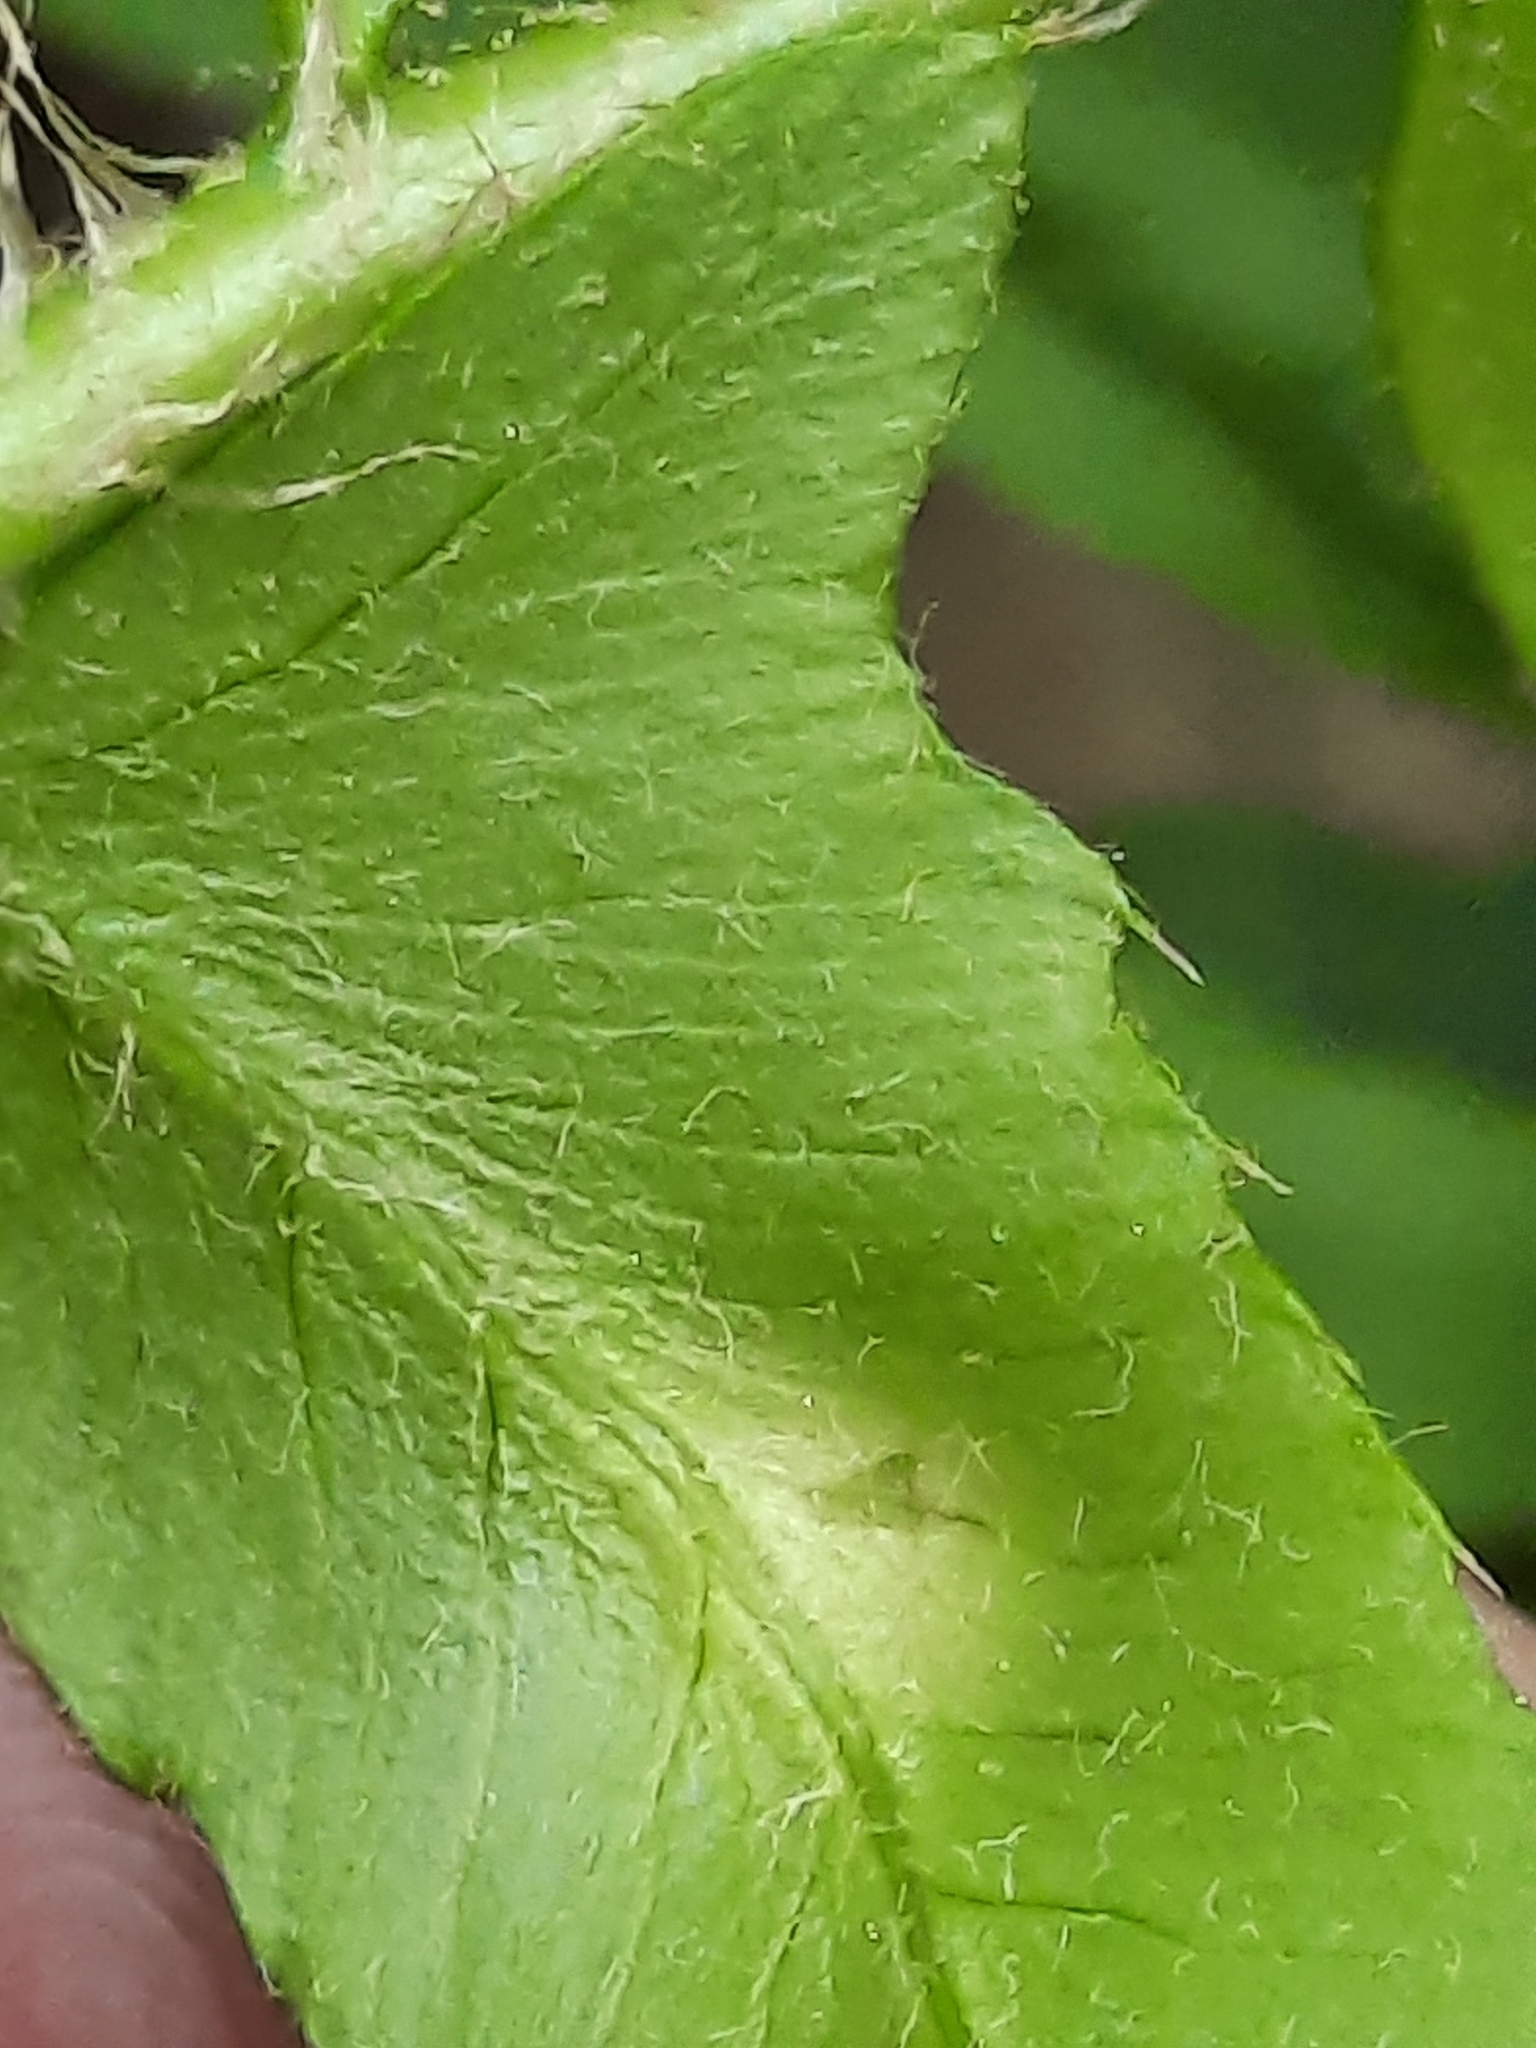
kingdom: Fungi
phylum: Ascomycota
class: Taphrinomycetes
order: Taphrinales
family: Taphrinaceae
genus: Taphrina
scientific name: Taphrina polystichi
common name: Christmas fern leaf curl
